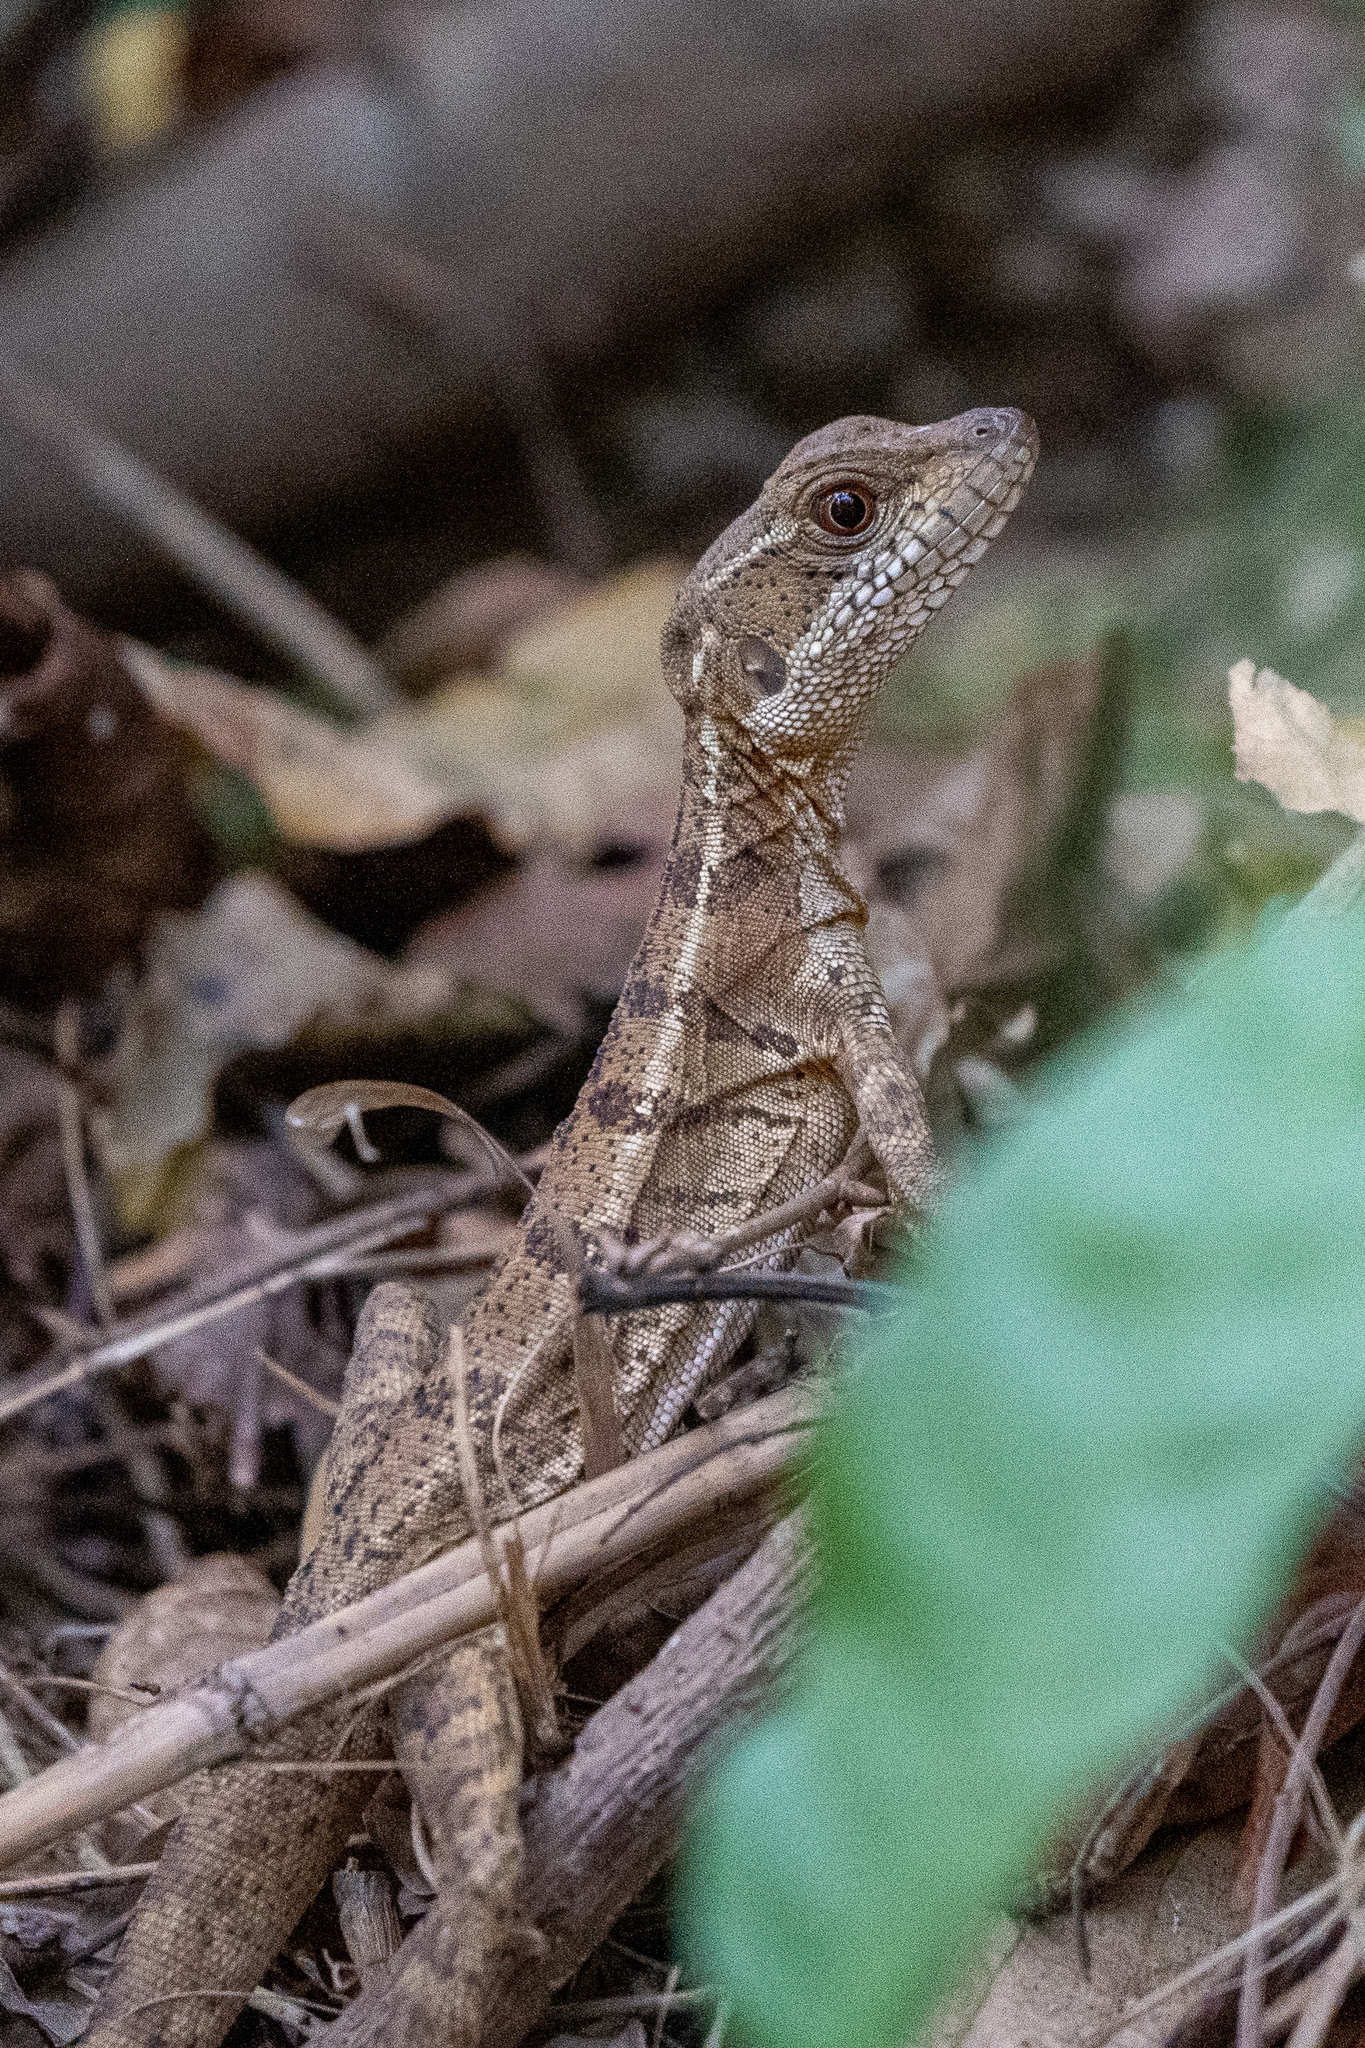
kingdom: Animalia
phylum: Chordata
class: Squamata
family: Corytophanidae
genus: Basiliscus
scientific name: Basiliscus basiliscus
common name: Common basilisk
